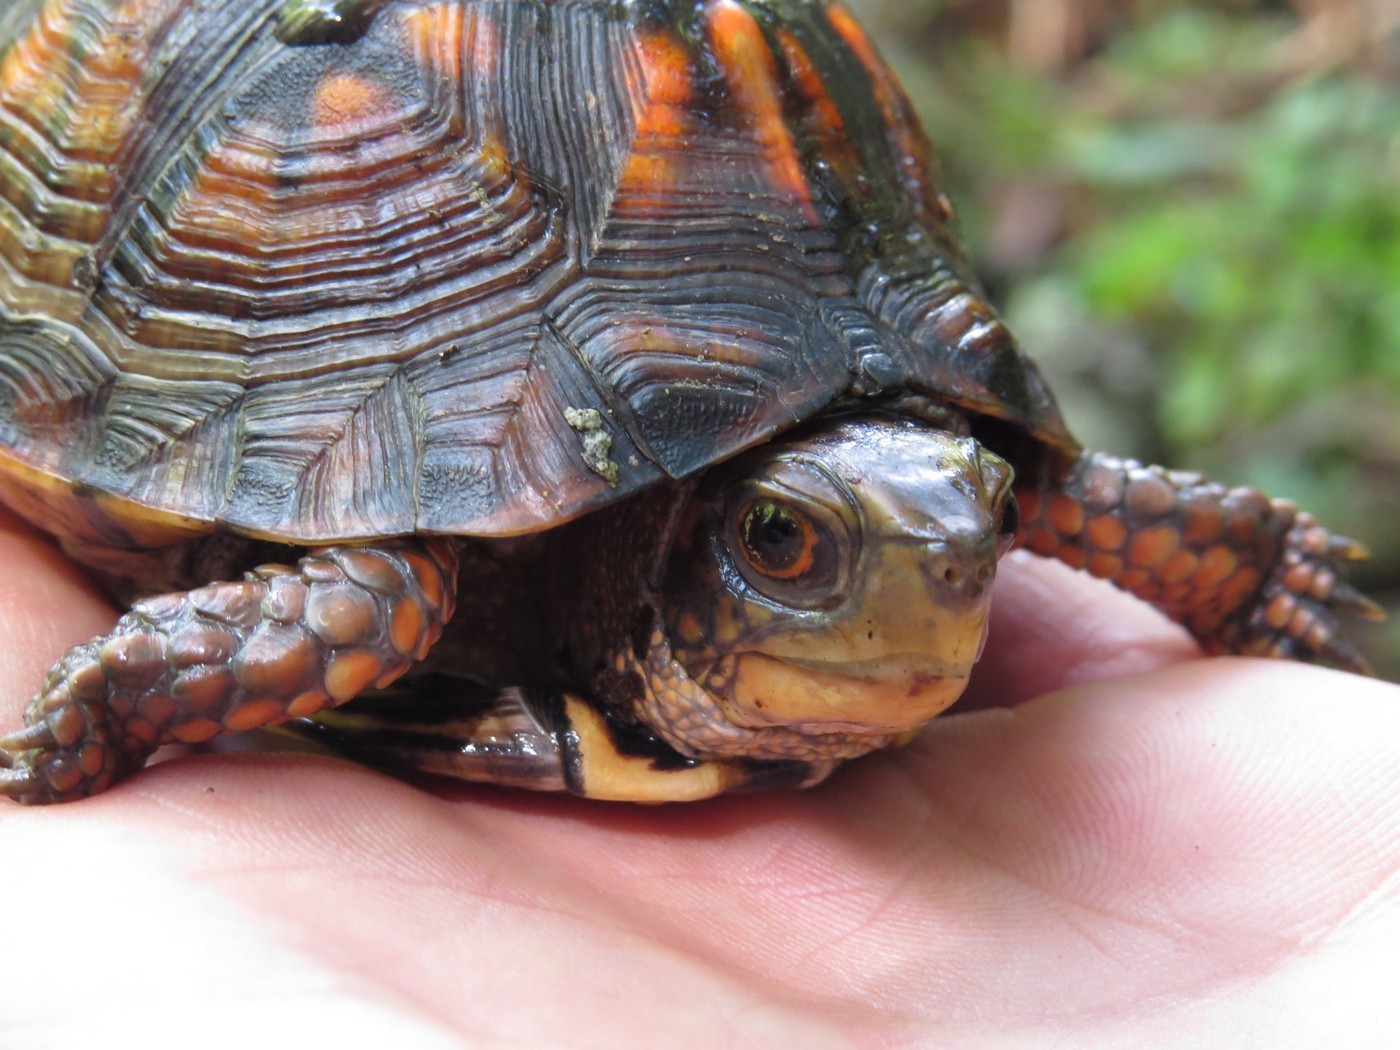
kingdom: Animalia
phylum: Chordata
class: Testudines
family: Emydidae
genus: Terrapene
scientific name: Terrapene carolina
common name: Common box turtle
